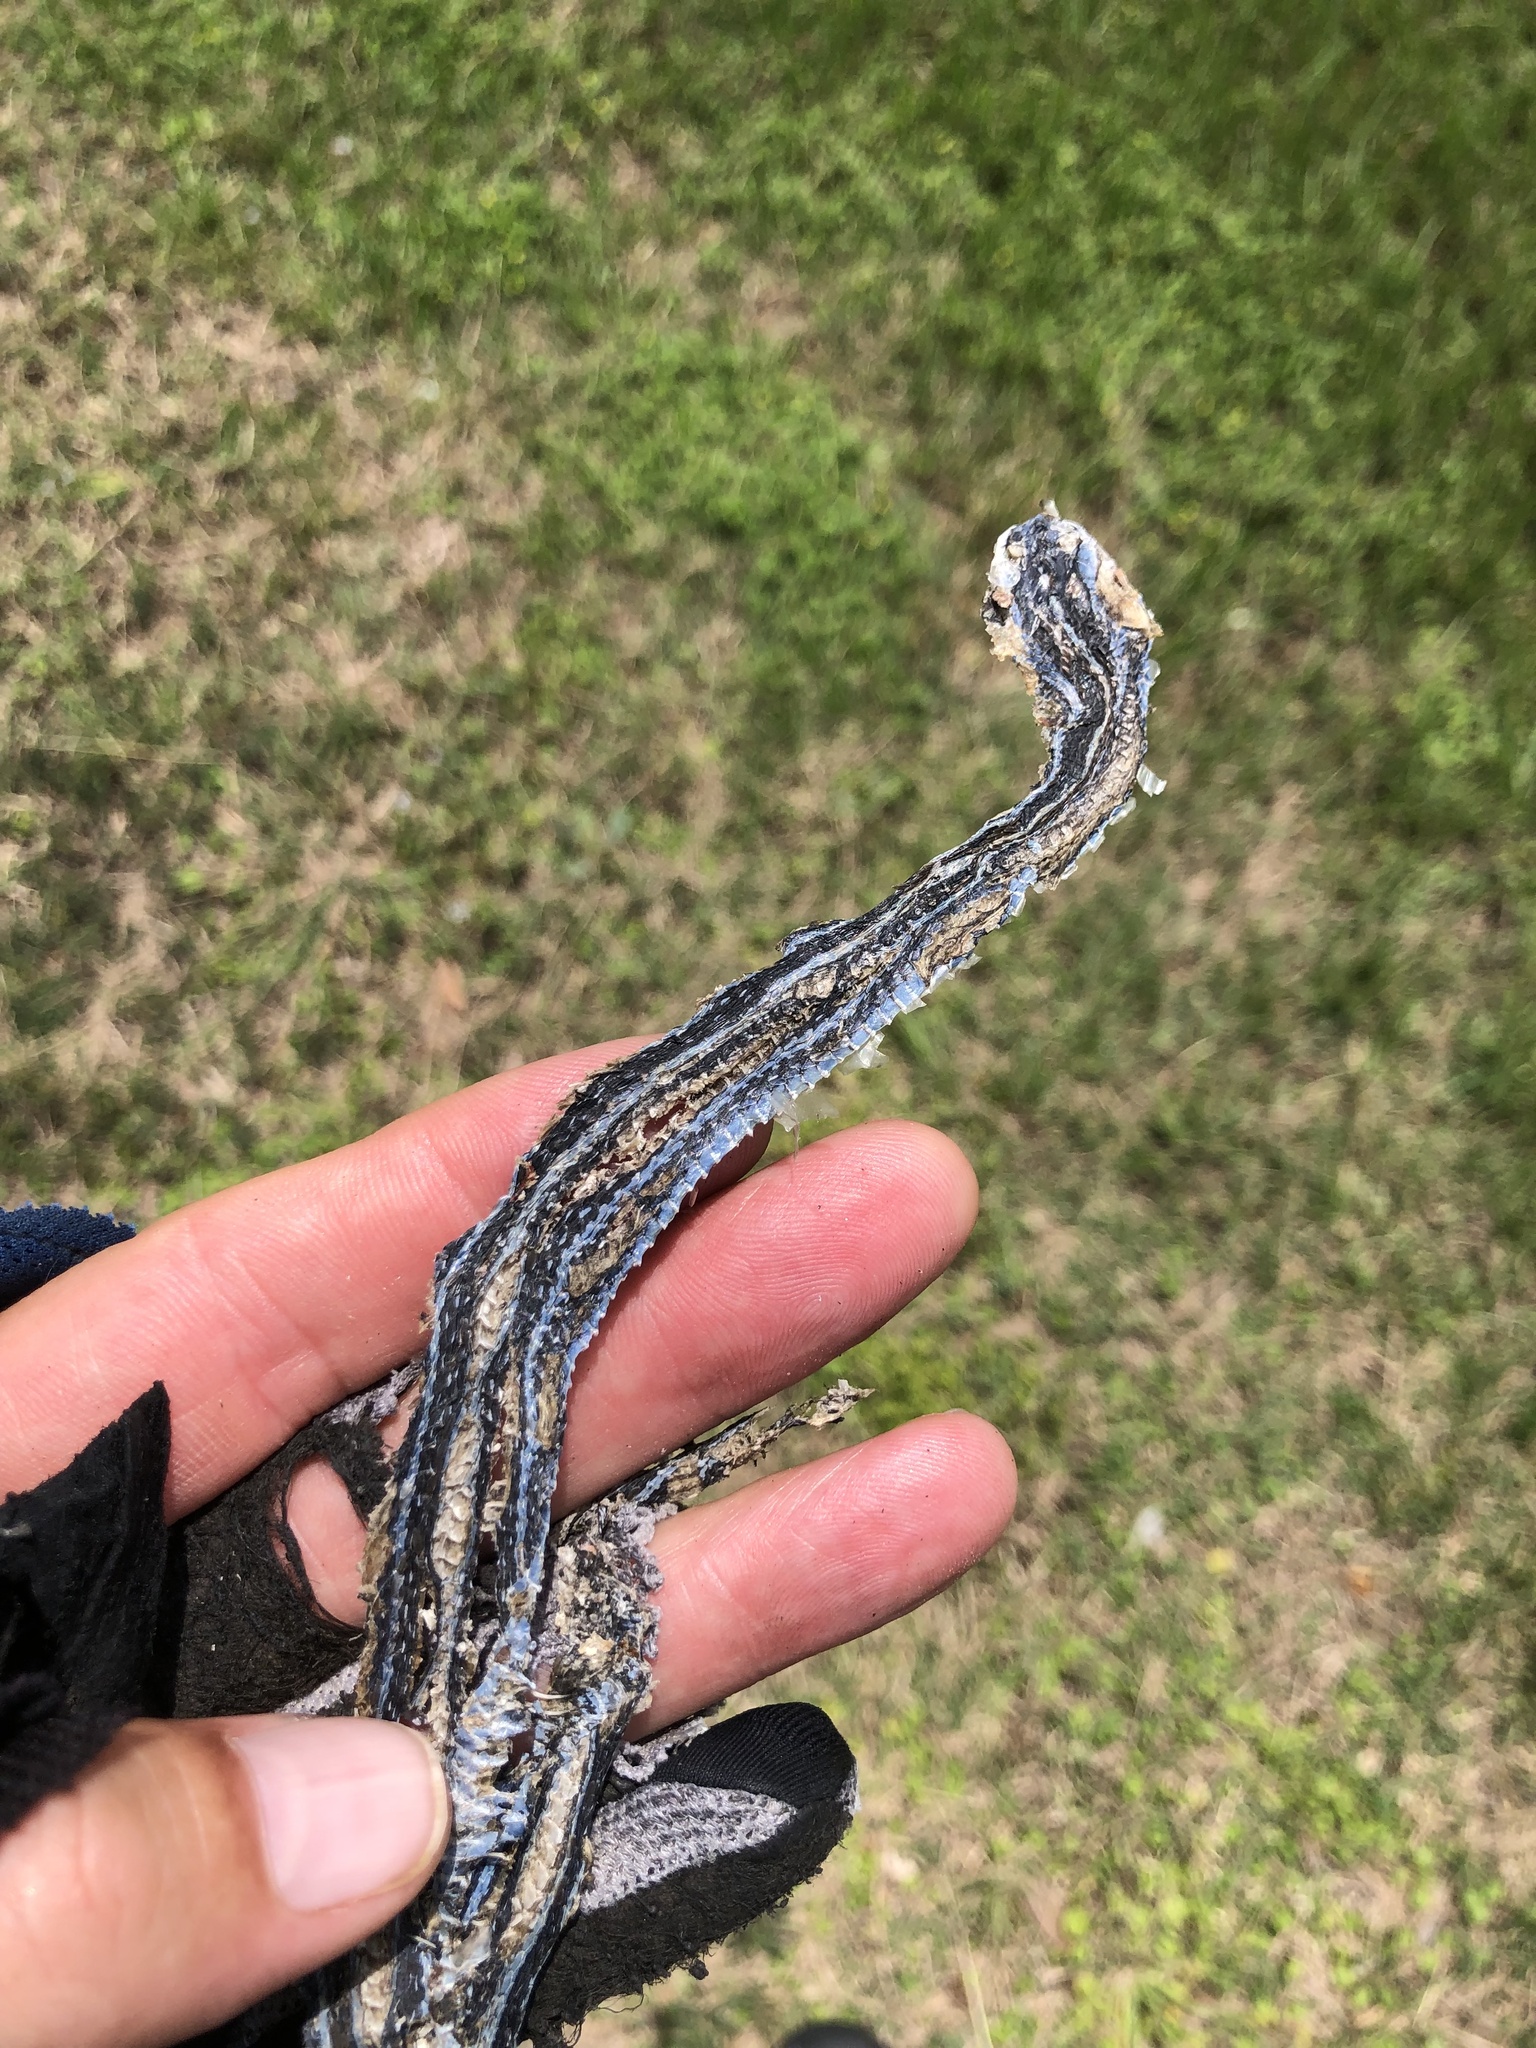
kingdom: Animalia
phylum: Chordata
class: Squamata
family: Colubridae
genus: Thamnophis
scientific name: Thamnophis proximus
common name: Western ribbon snake
